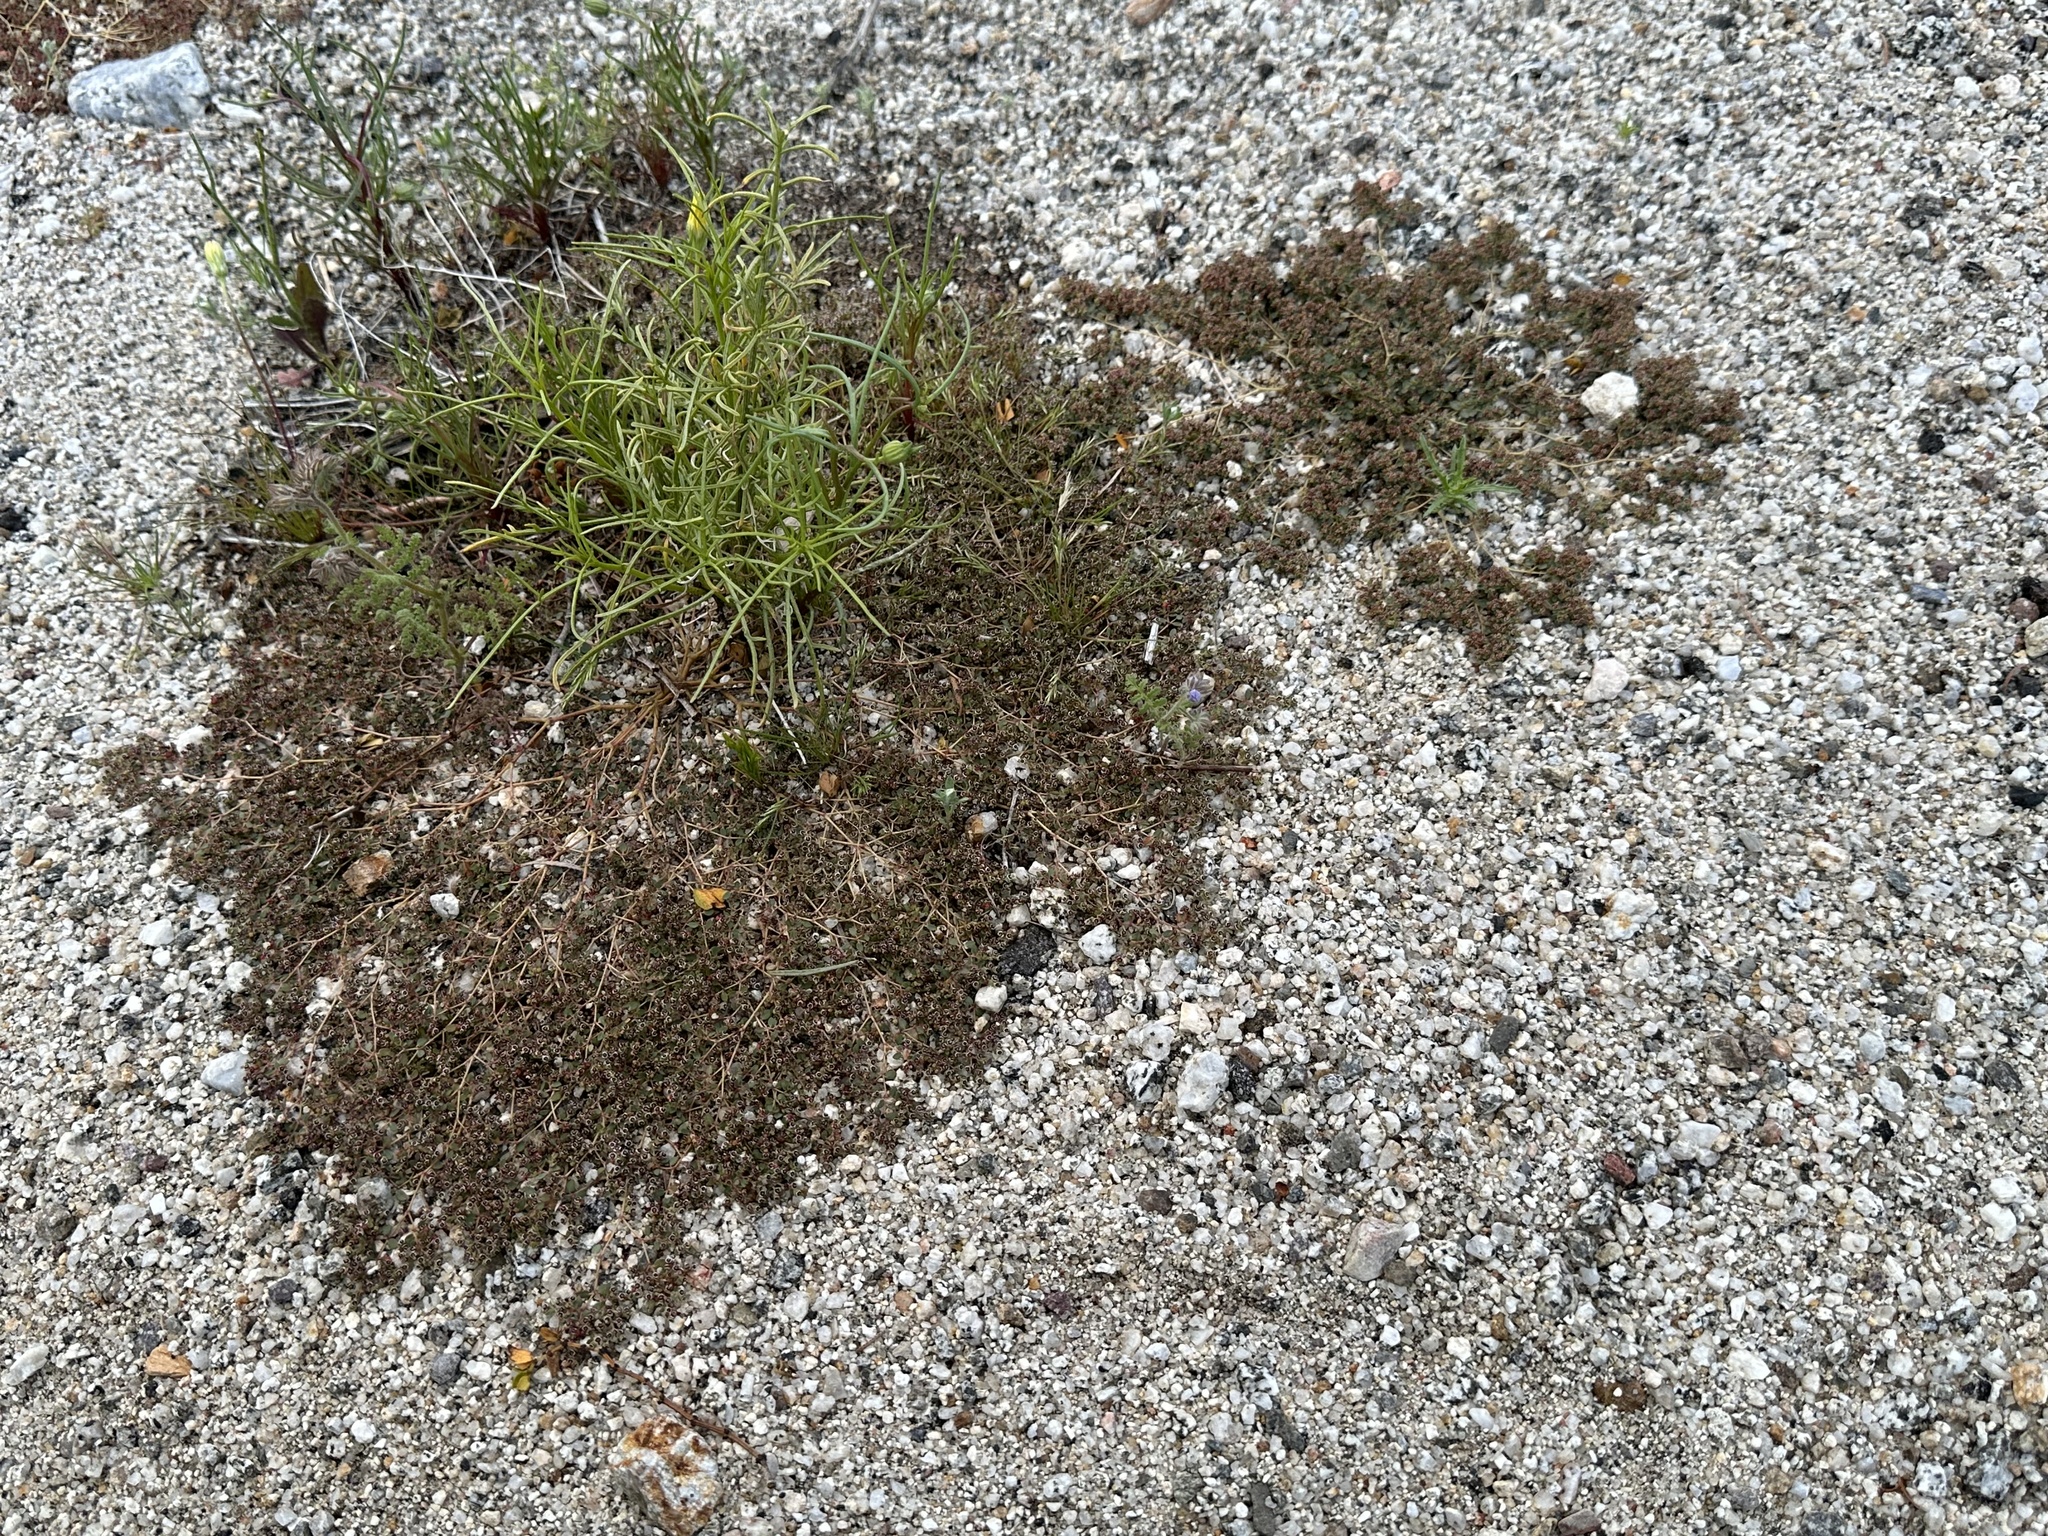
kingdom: Plantae
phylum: Tracheophyta
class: Magnoliopsida
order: Malpighiales
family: Euphorbiaceae
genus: Euphorbia
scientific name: Euphorbia polycarpa
